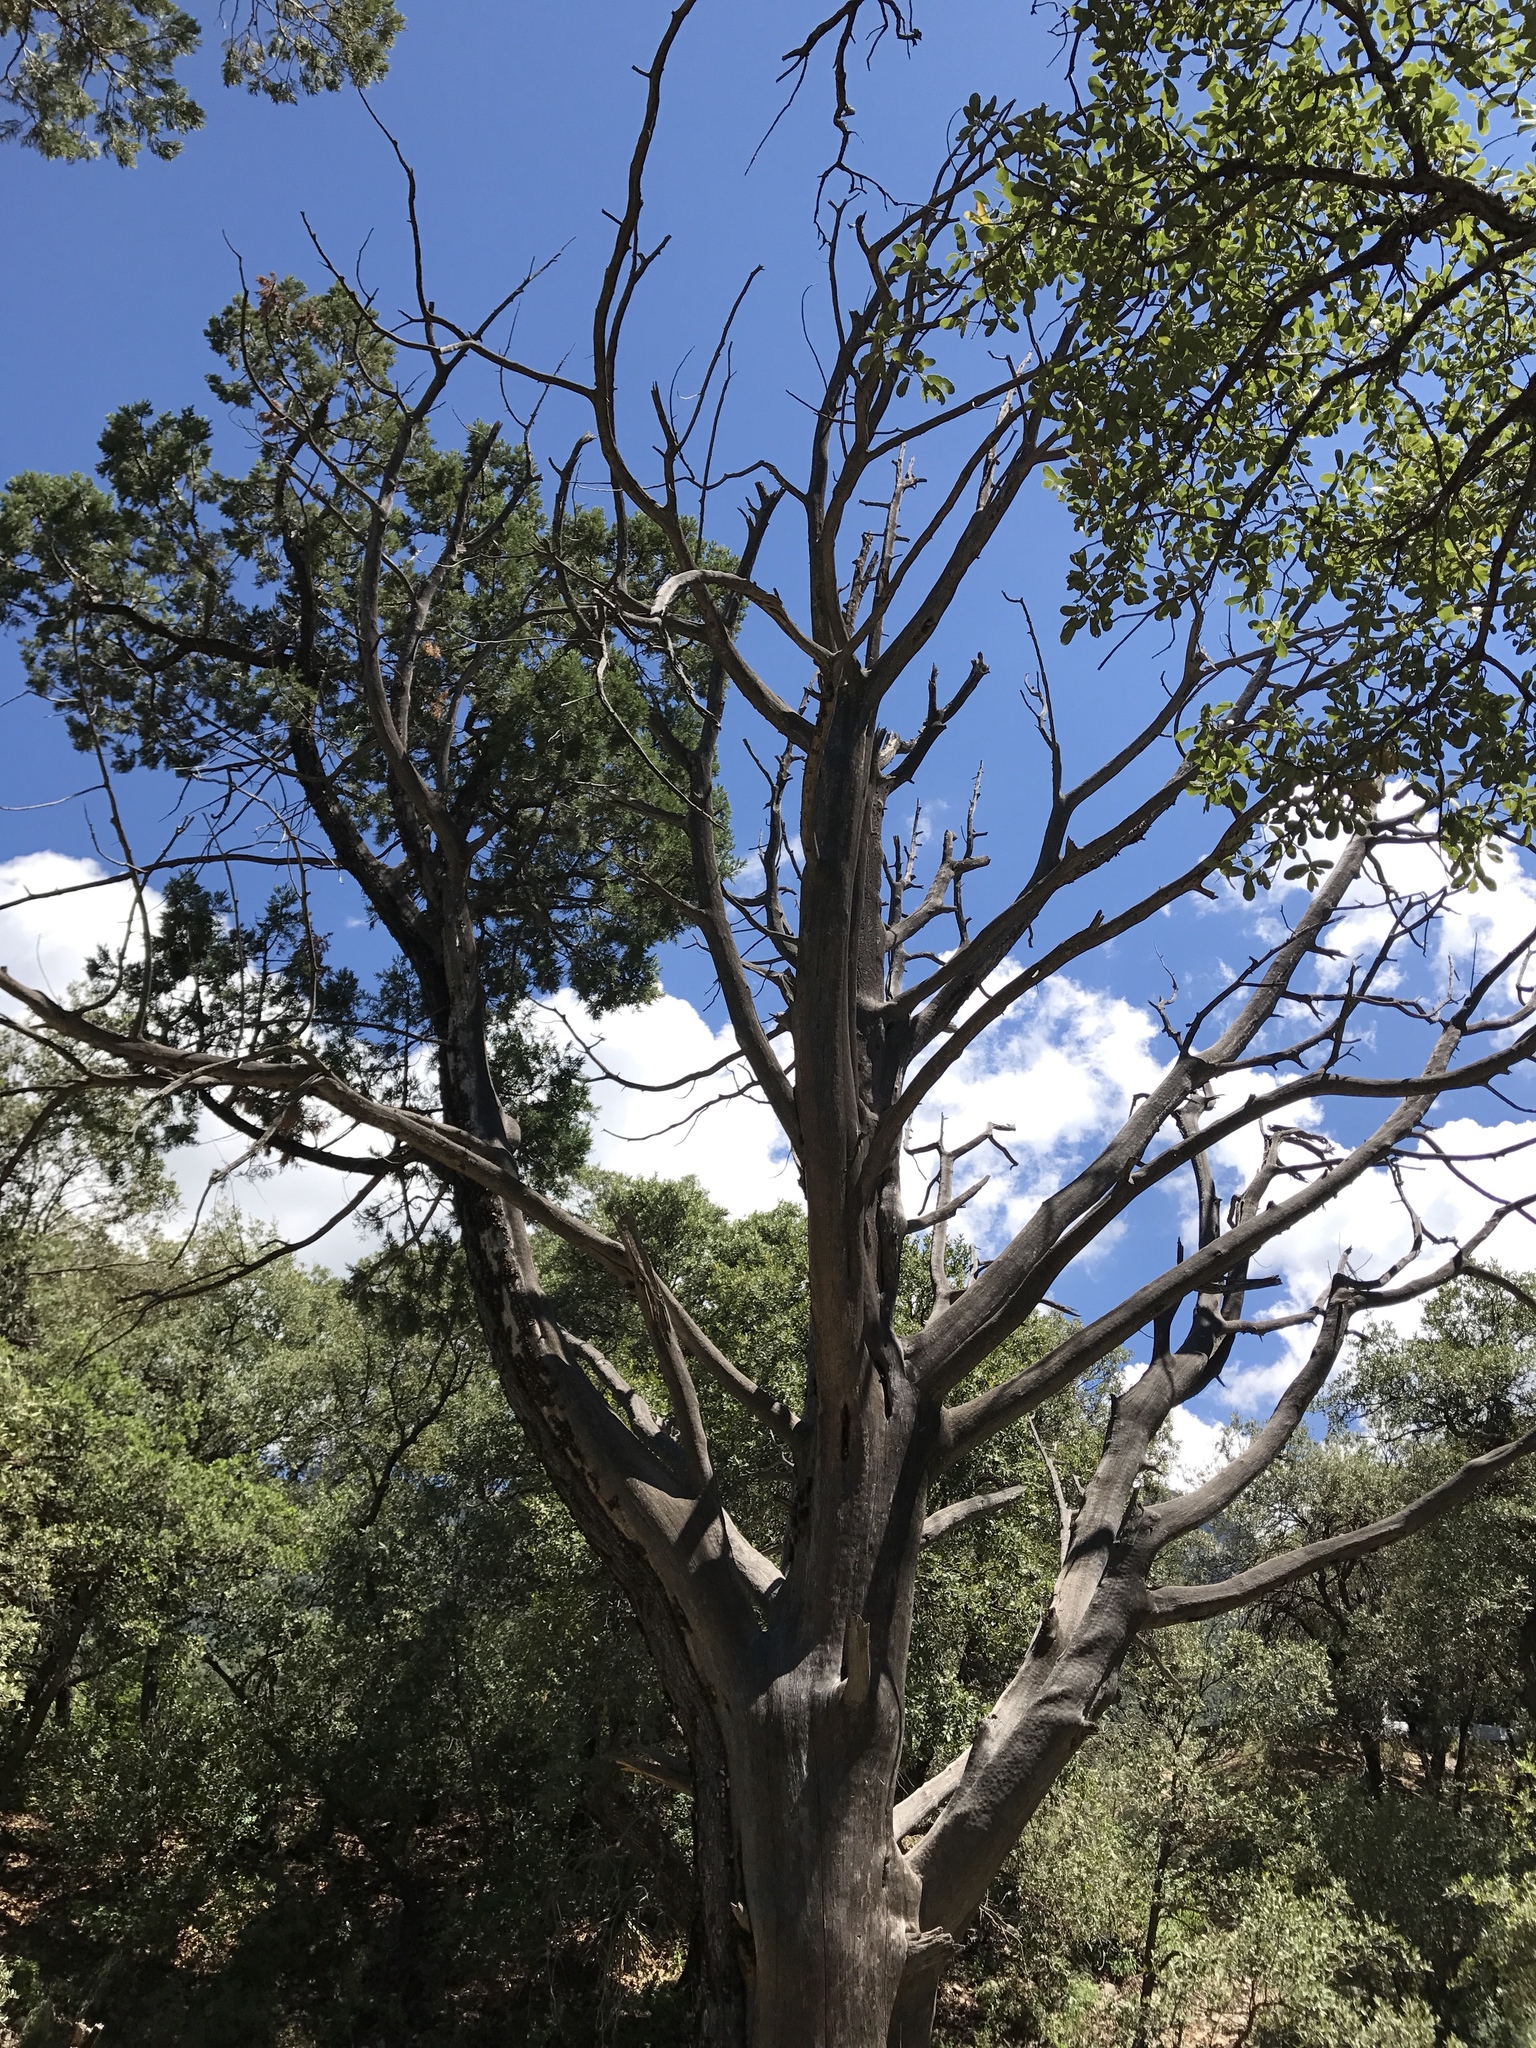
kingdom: Plantae
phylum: Tracheophyta
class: Pinopsida
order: Pinales
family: Cupressaceae
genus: Juniperus
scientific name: Juniperus deppeana
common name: Alligator juniper
